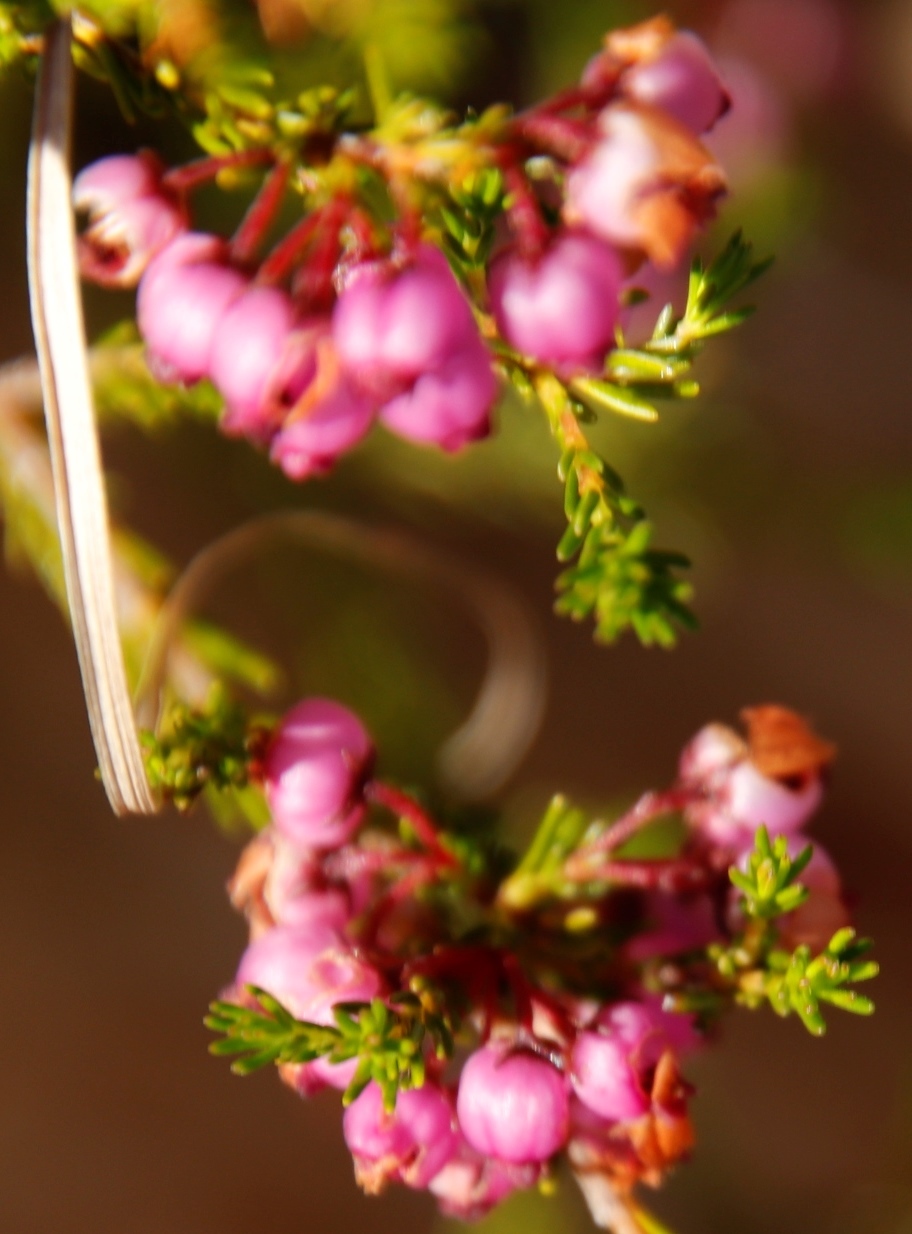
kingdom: Plantae
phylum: Tracheophyta
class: Magnoliopsida
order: Ericales
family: Ericaceae
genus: Erica
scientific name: Erica multumbellifera
